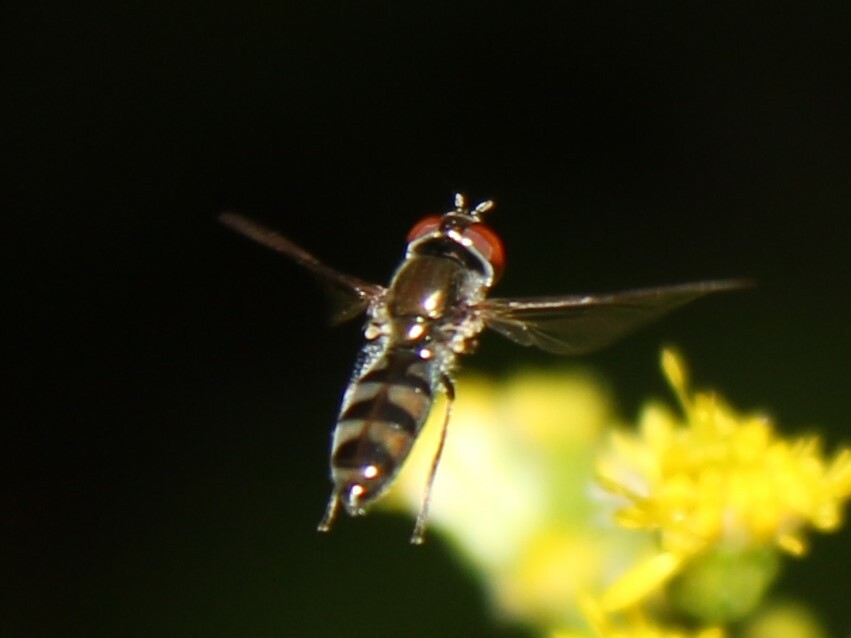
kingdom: Animalia
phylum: Arthropoda
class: Insecta
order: Diptera
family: Syrphidae
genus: Platycheirus
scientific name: Platycheirus
